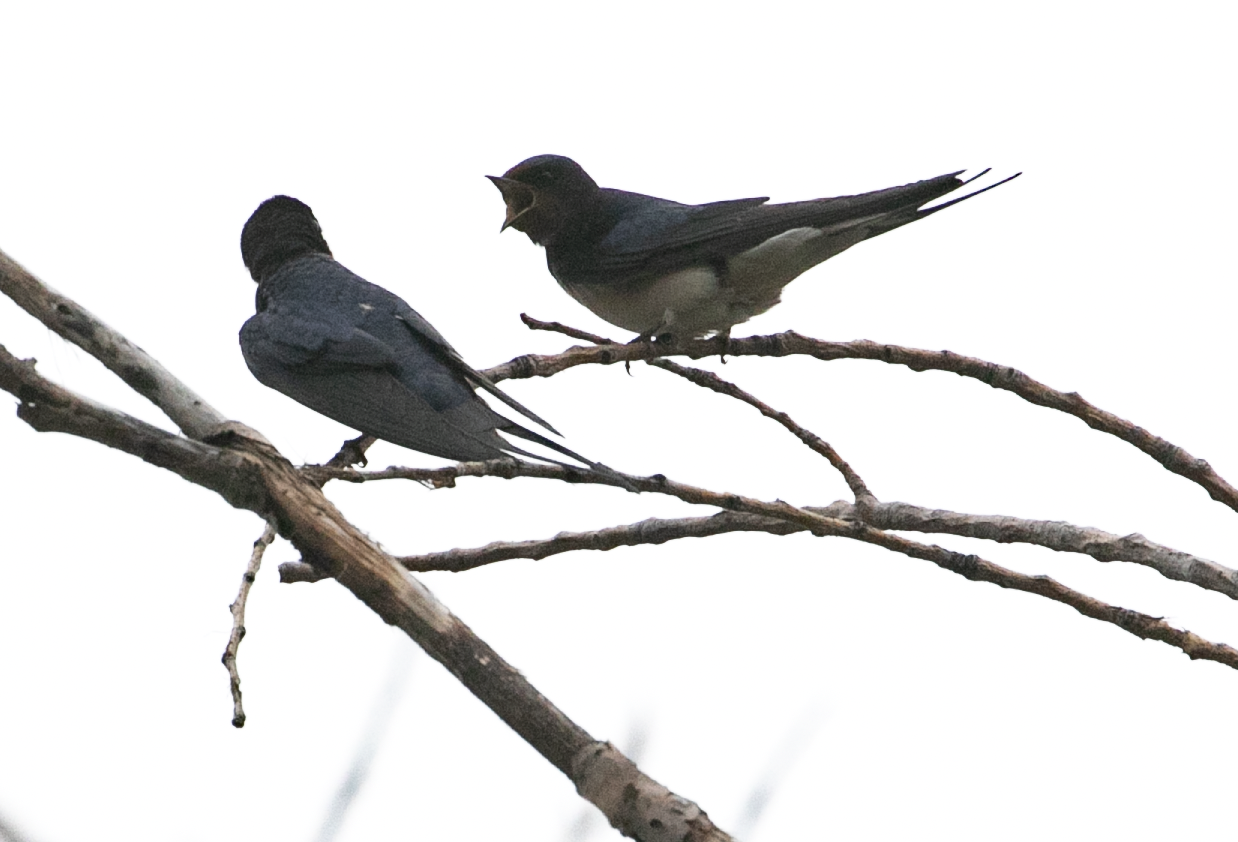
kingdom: Animalia
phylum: Chordata
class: Aves
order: Passeriformes
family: Hirundinidae
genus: Hirundo
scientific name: Hirundo rustica
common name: Barn swallow
